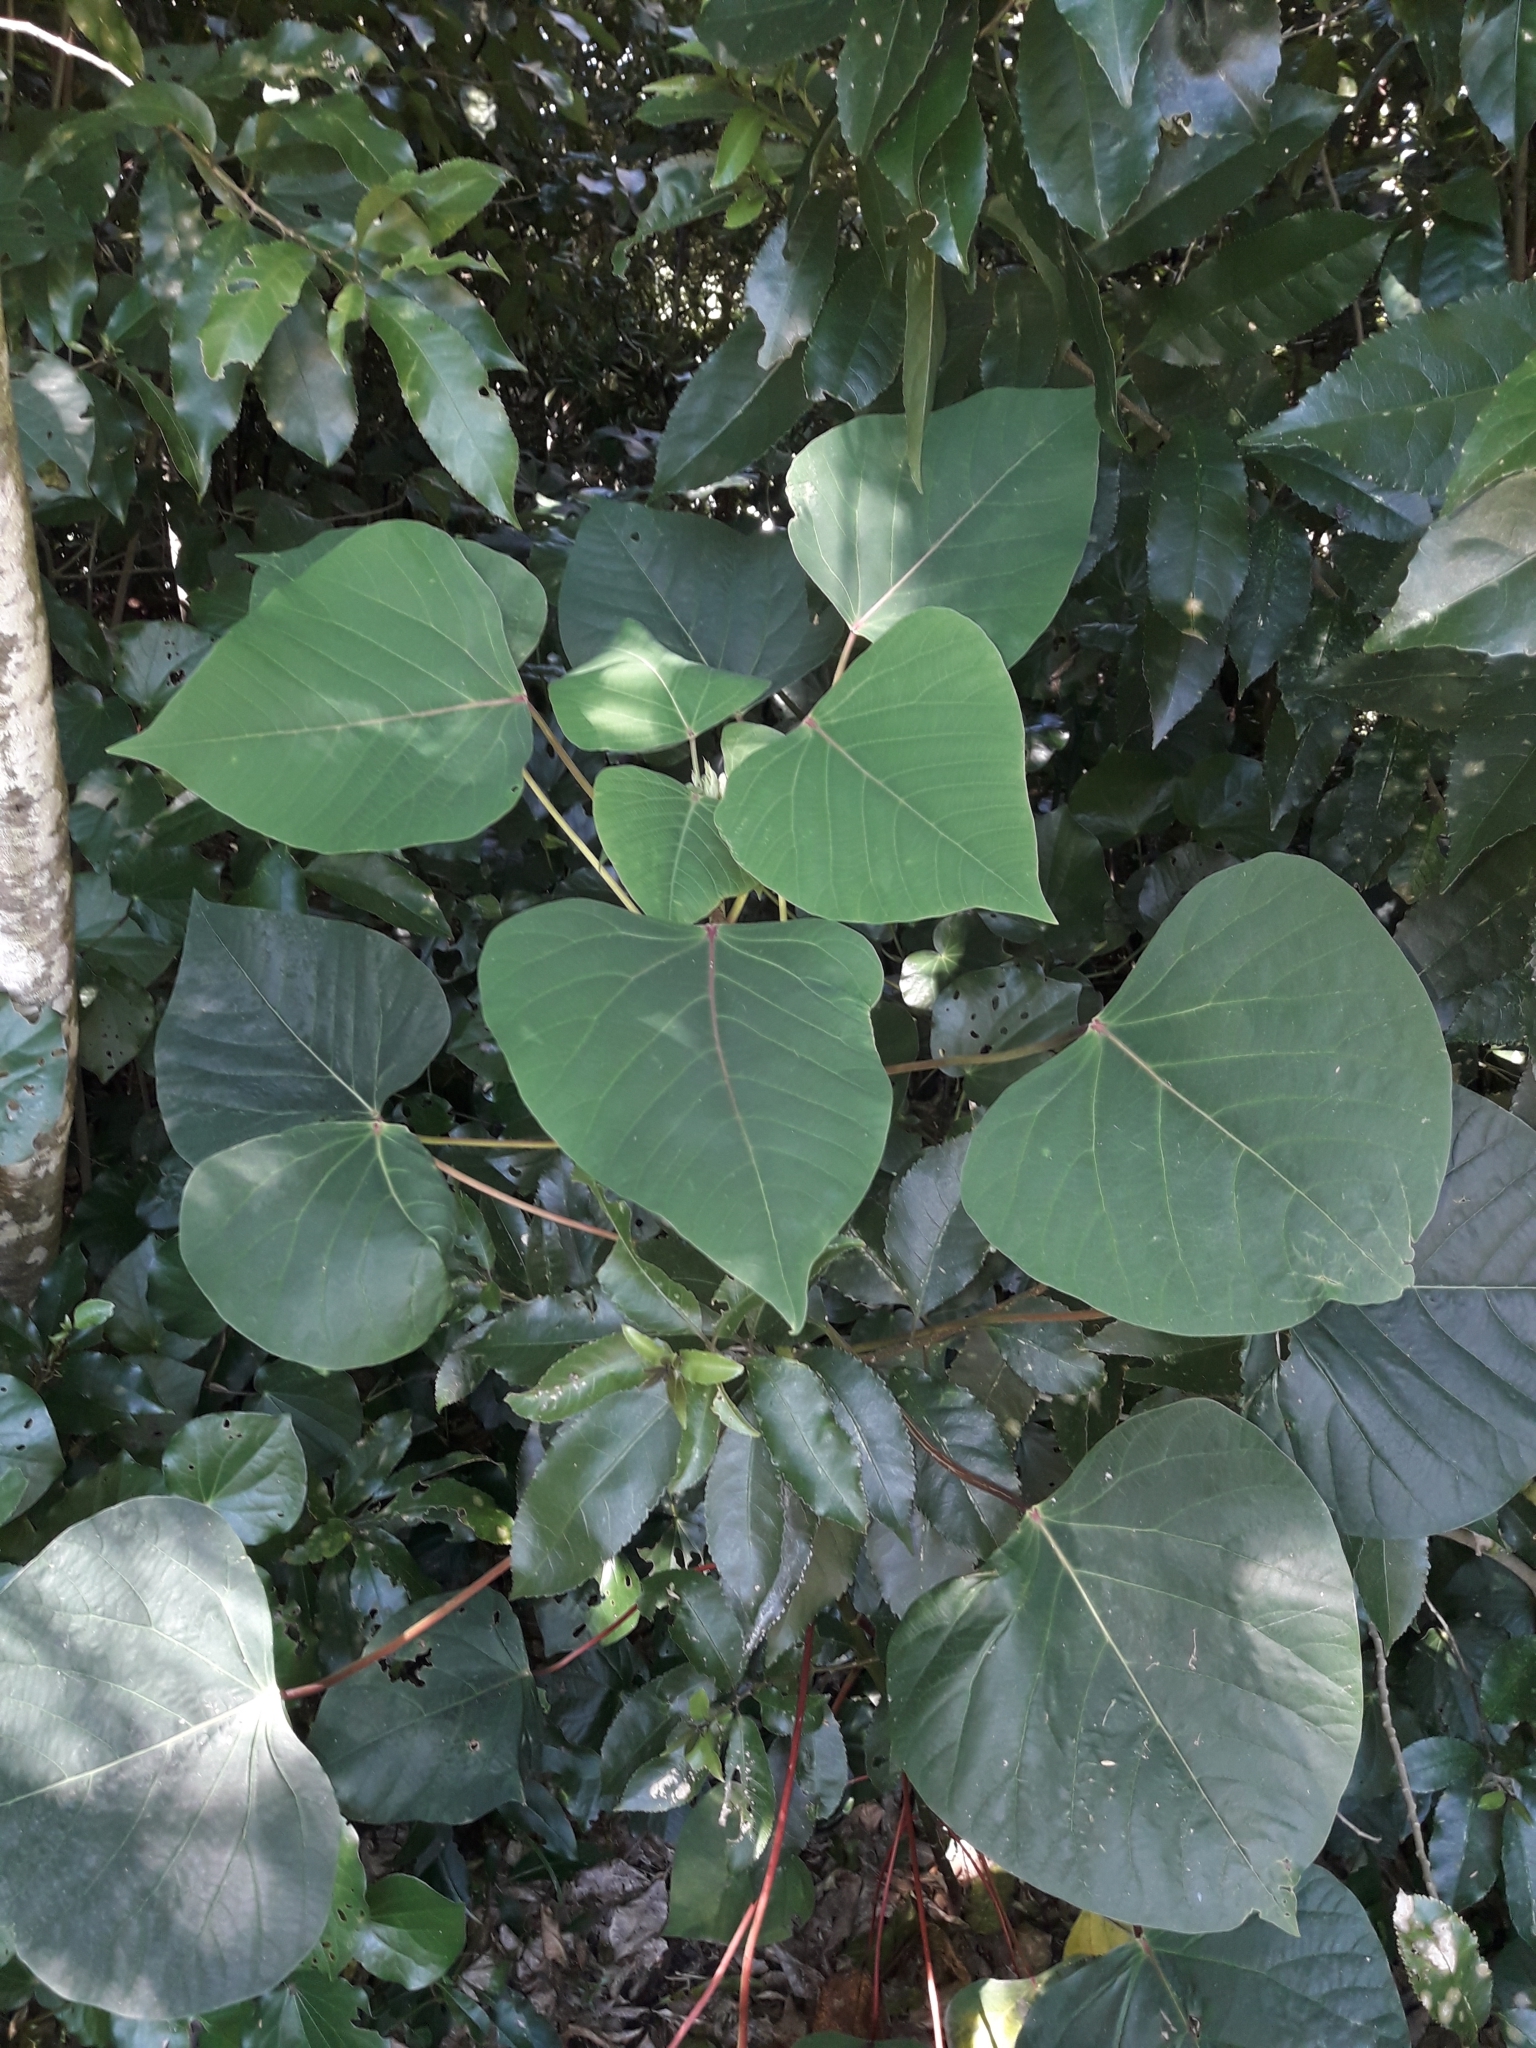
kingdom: Plantae
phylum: Tracheophyta
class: Magnoliopsida
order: Malpighiales
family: Euphorbiaceae
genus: Homalanthus
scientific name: Homalanthus populifolius
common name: Queensland poplar
